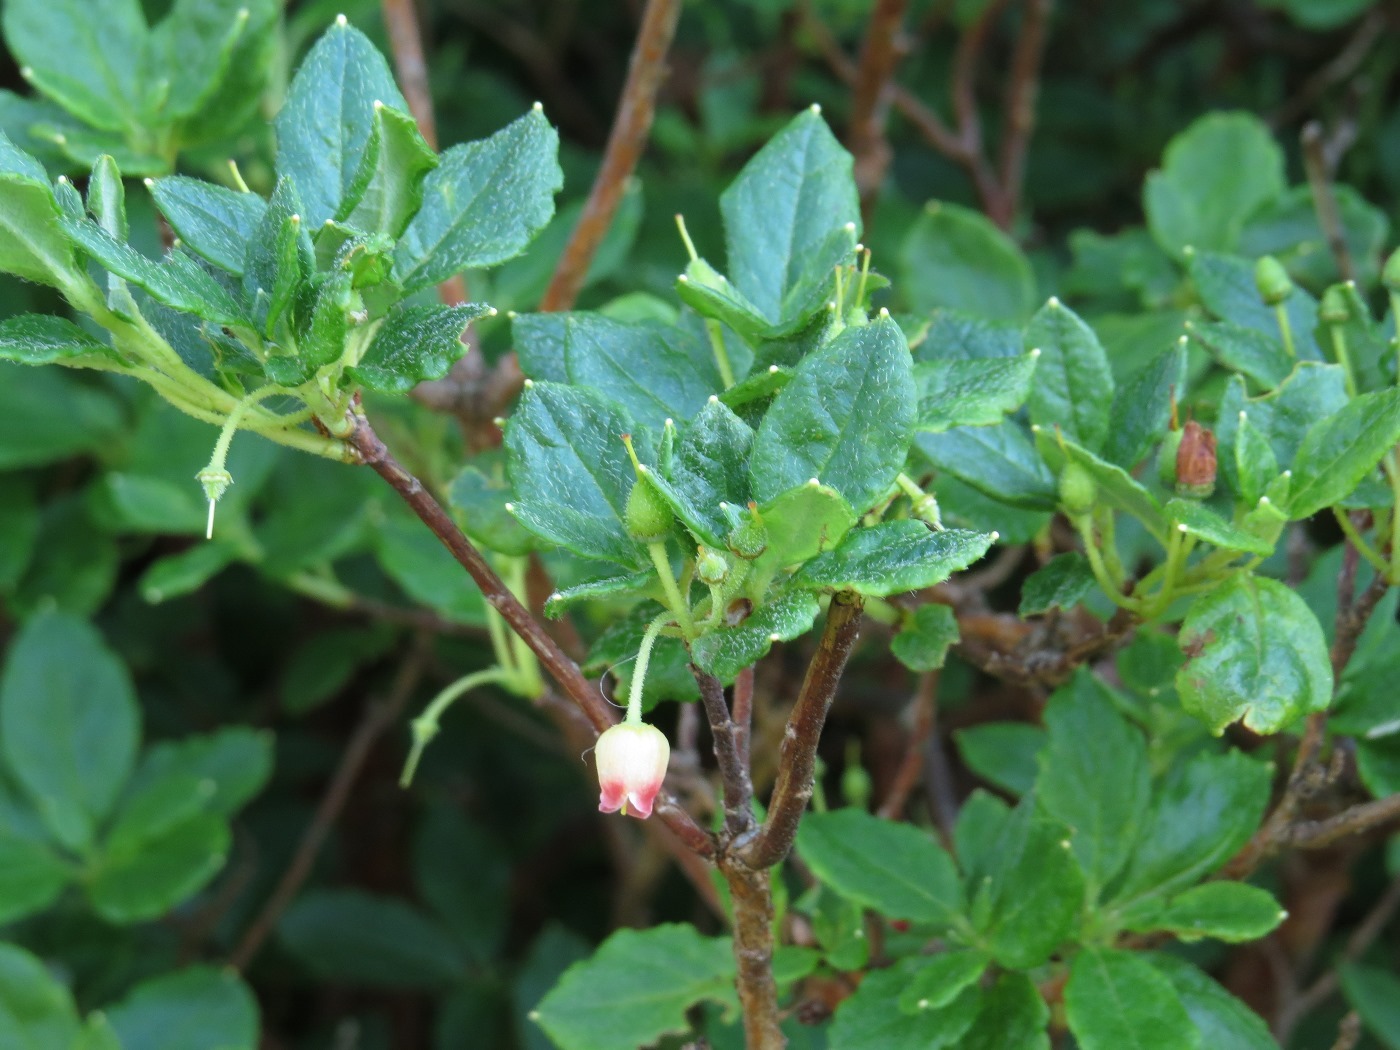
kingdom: Plantae
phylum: Tracheophyta
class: Magnoliopsida
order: Ericales
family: Ericaceae
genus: Rhododendron
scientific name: Rhododendron pilosum
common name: Hairy minniebush
